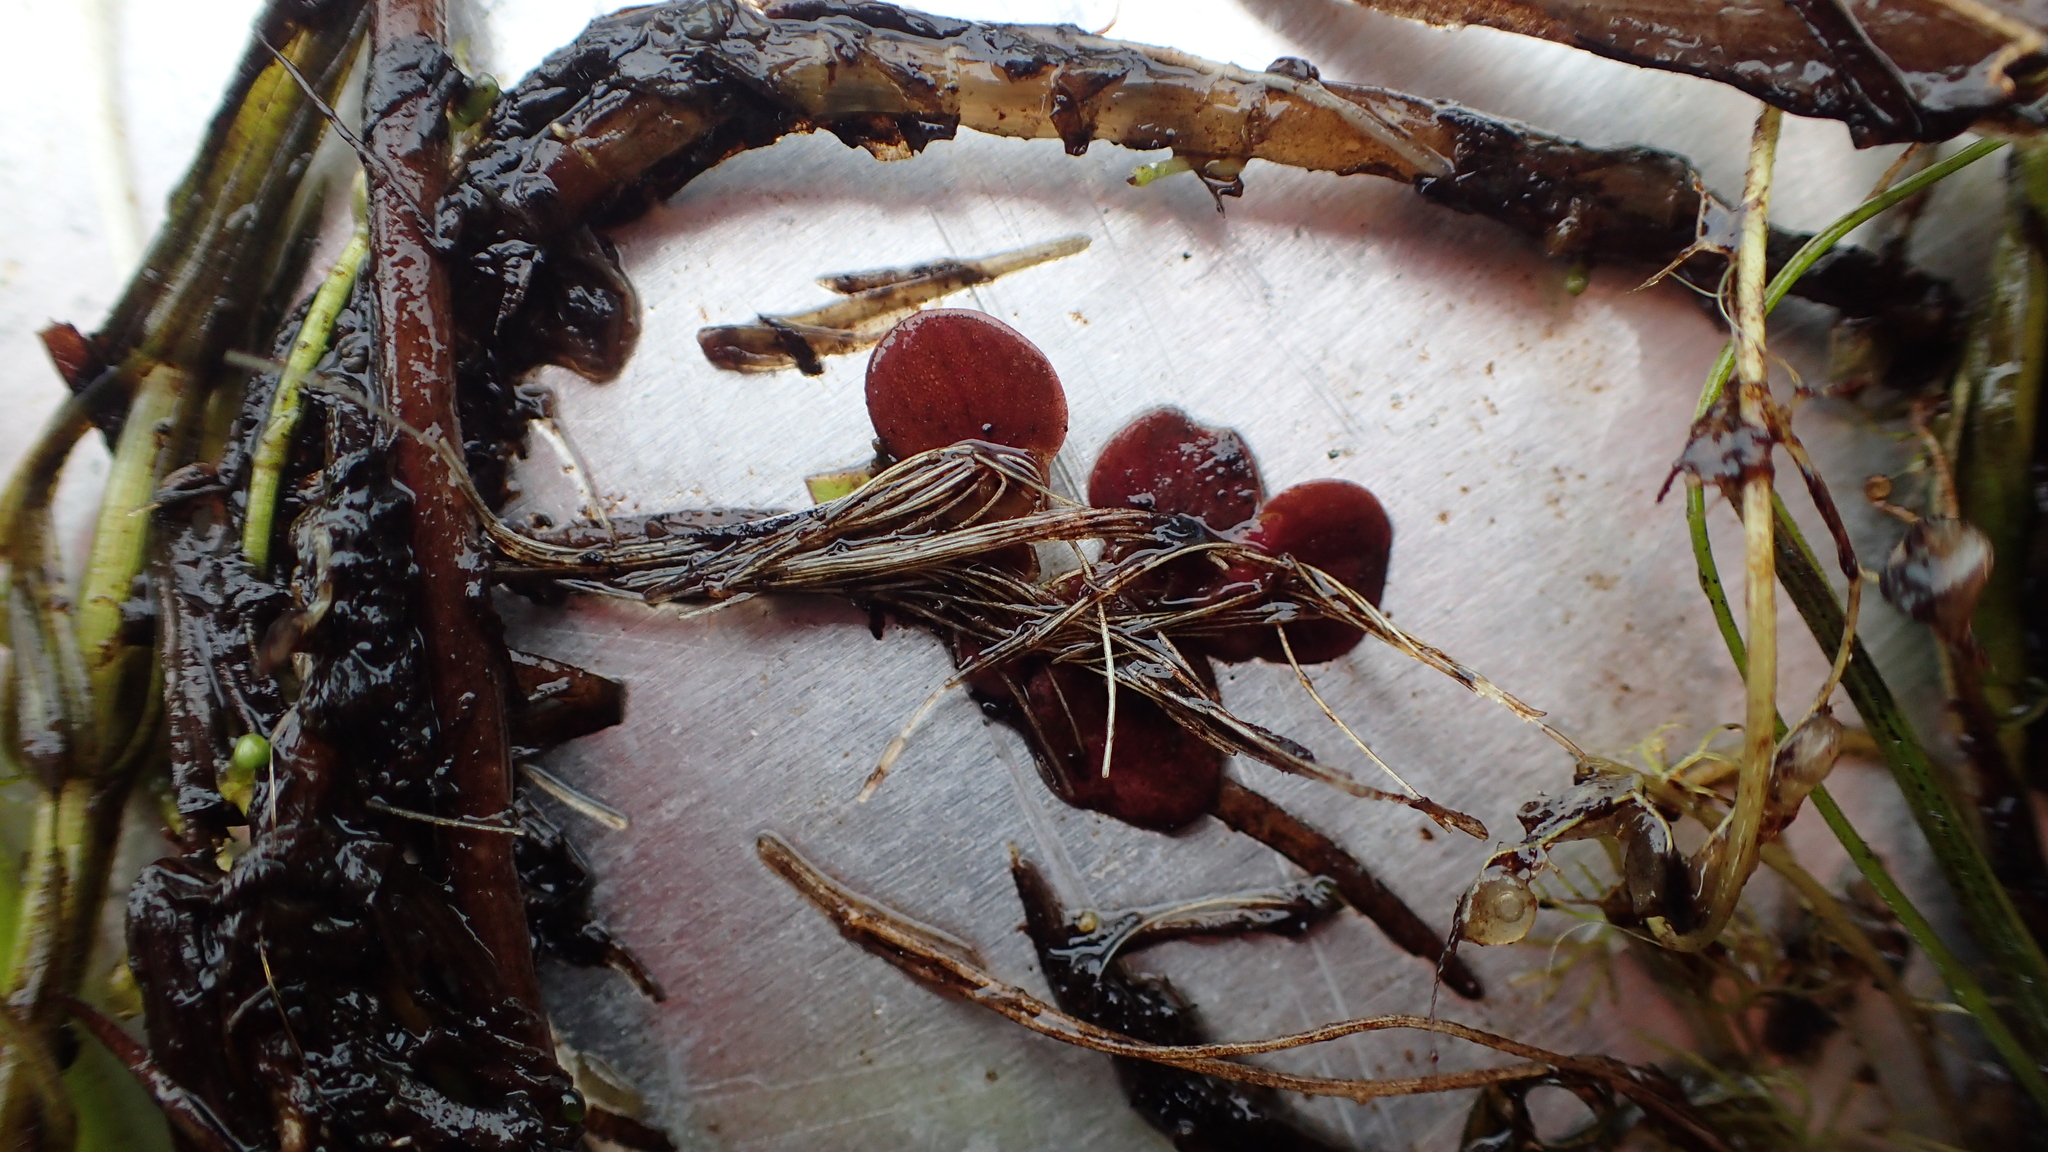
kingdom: Plantae
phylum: Tracheophyta
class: Liliopsida
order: Alismatales
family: Araceae
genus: Spirodela
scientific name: Spirodela polyrhiza
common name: Great duckweed
